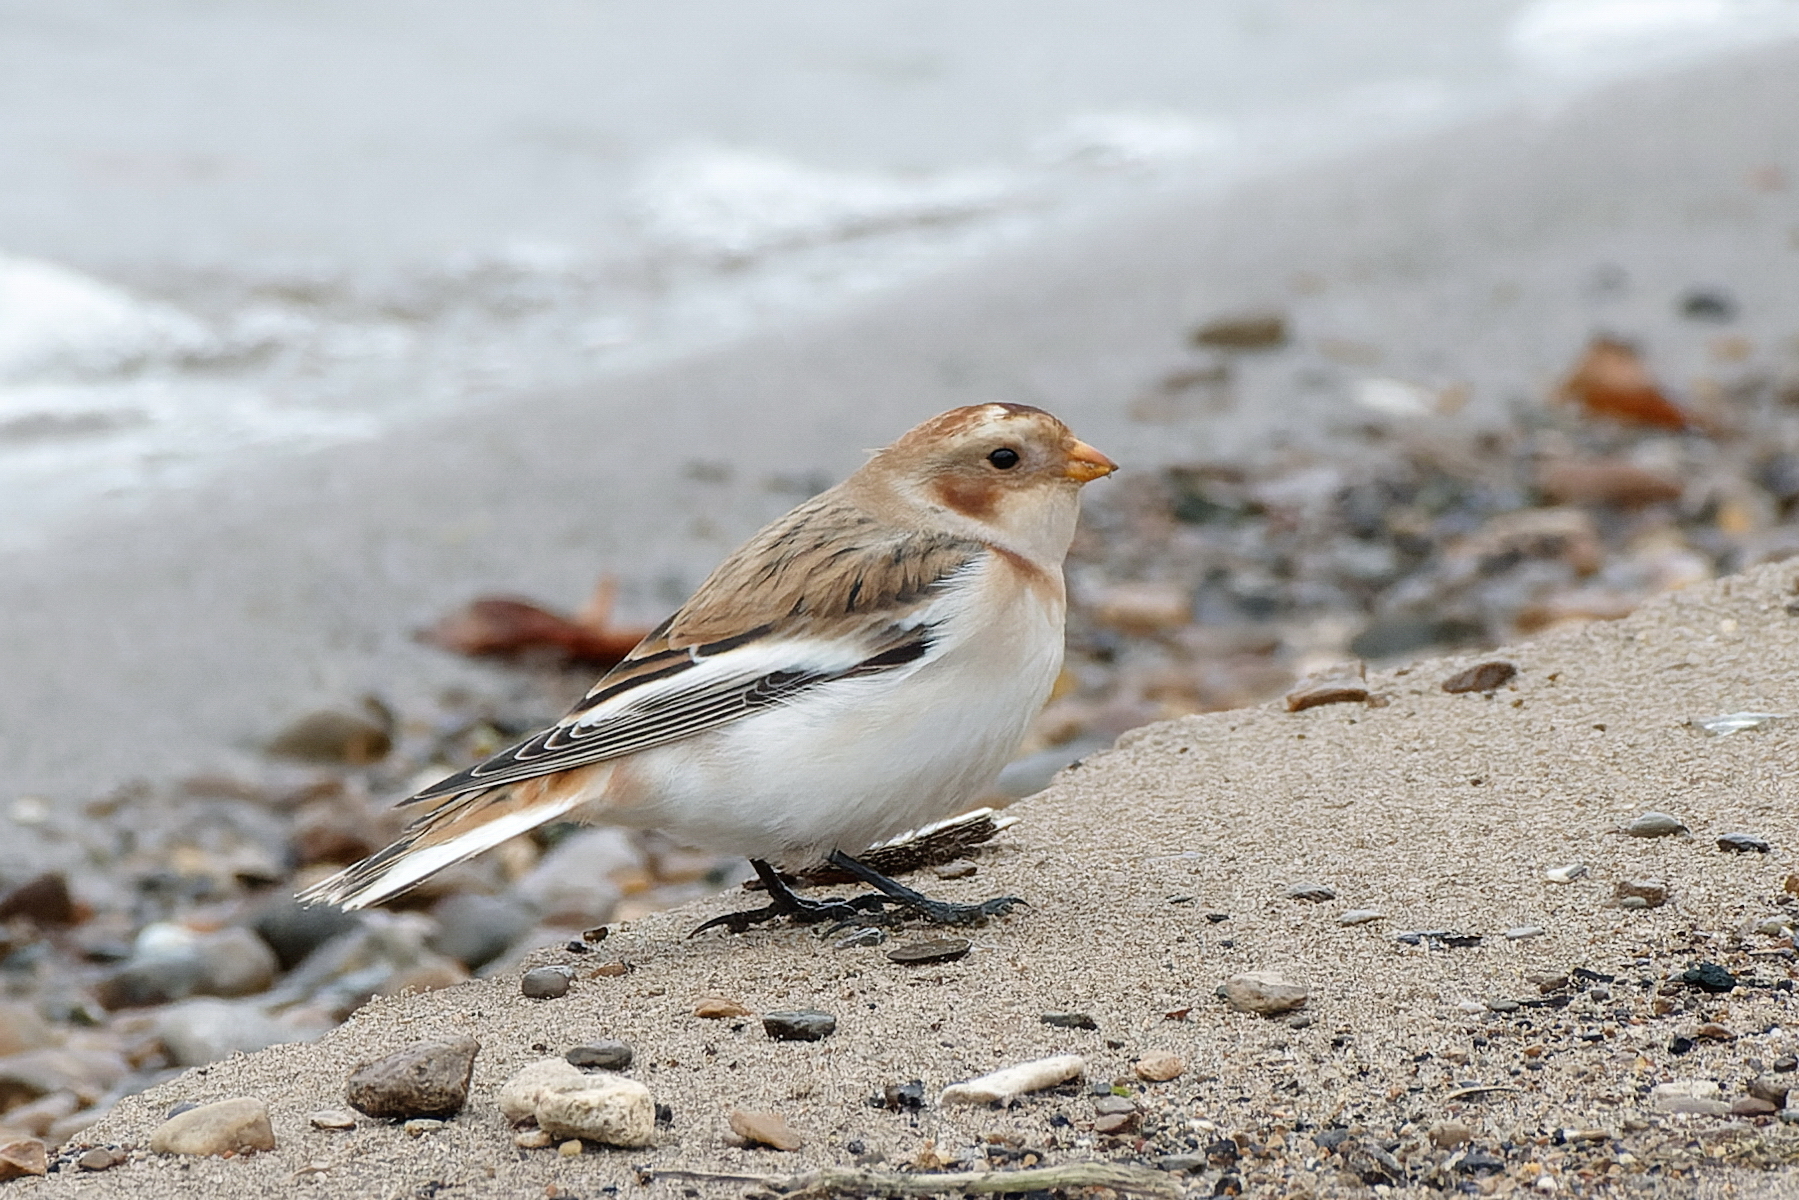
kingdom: Animalia
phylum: Chordata
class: Aves
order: Passeriformes
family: Calcariidae
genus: Plectrophenax
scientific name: Plectrophenax nivalis
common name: Snow bunting
